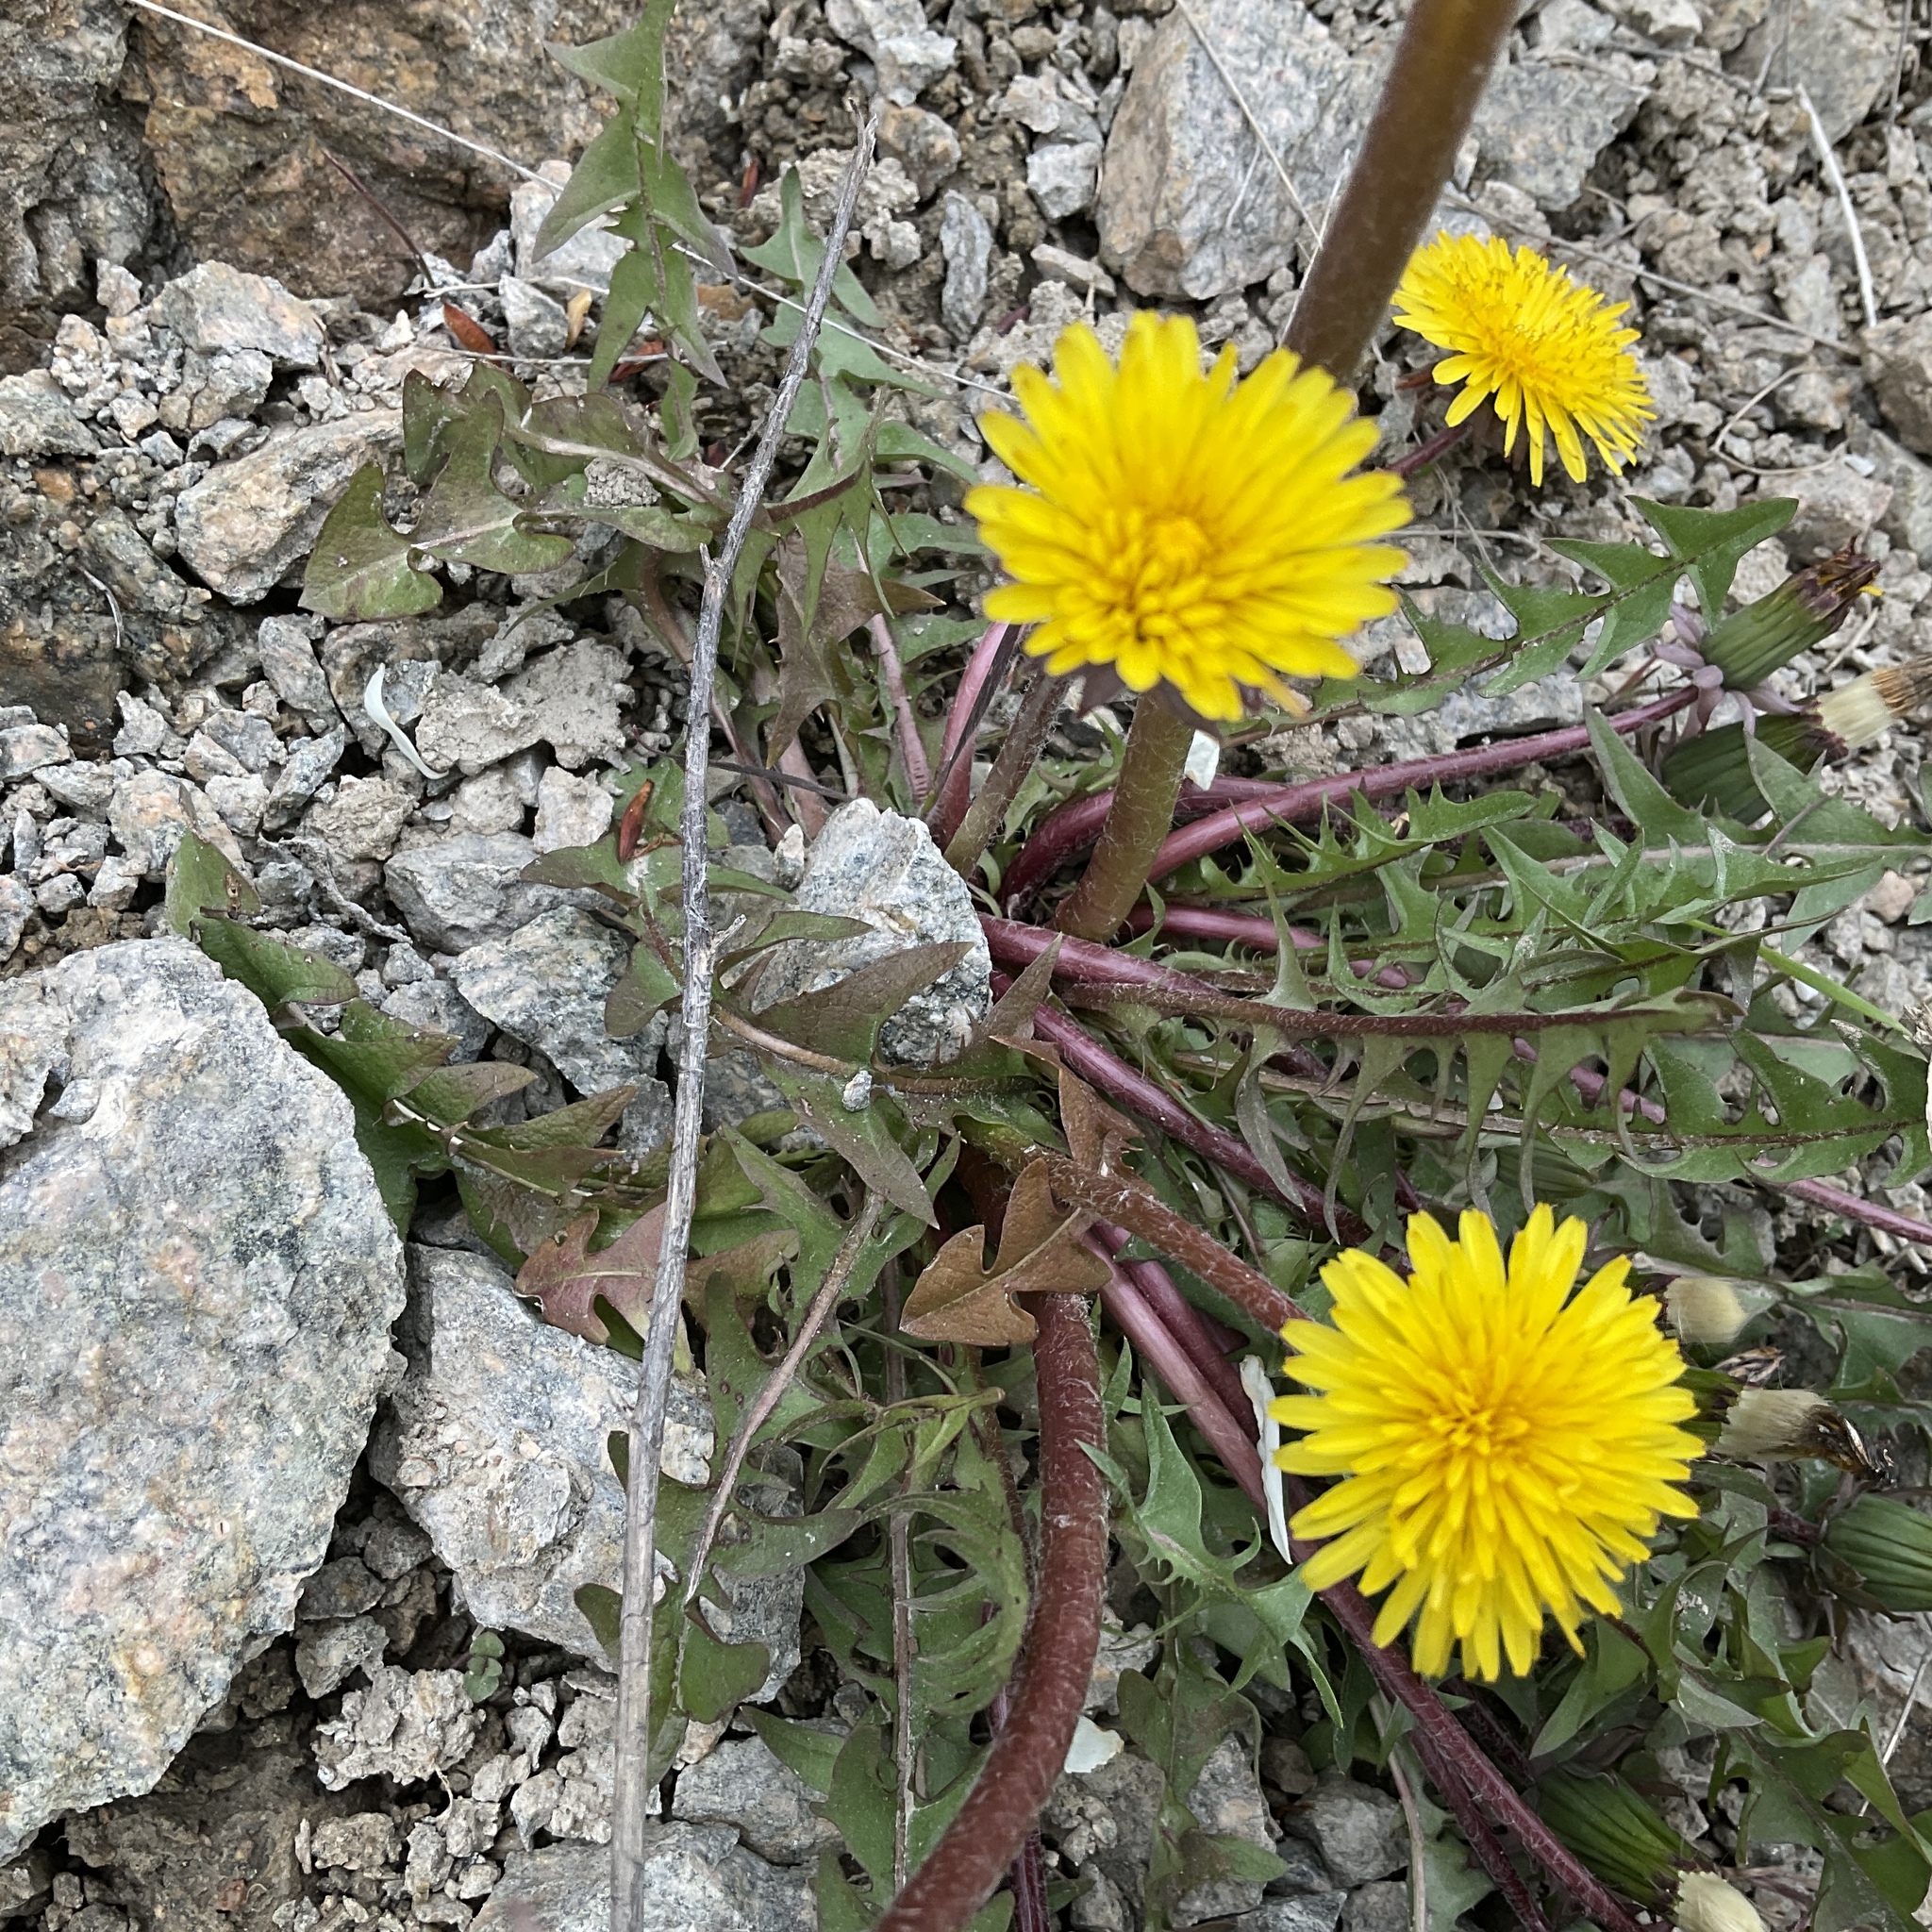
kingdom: Plantae
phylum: Tracheophyta
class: Magnoliopsida
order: Asterales
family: Asteraceae
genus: Taraxacum
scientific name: Taraxacum officinale
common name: Common dandelion
